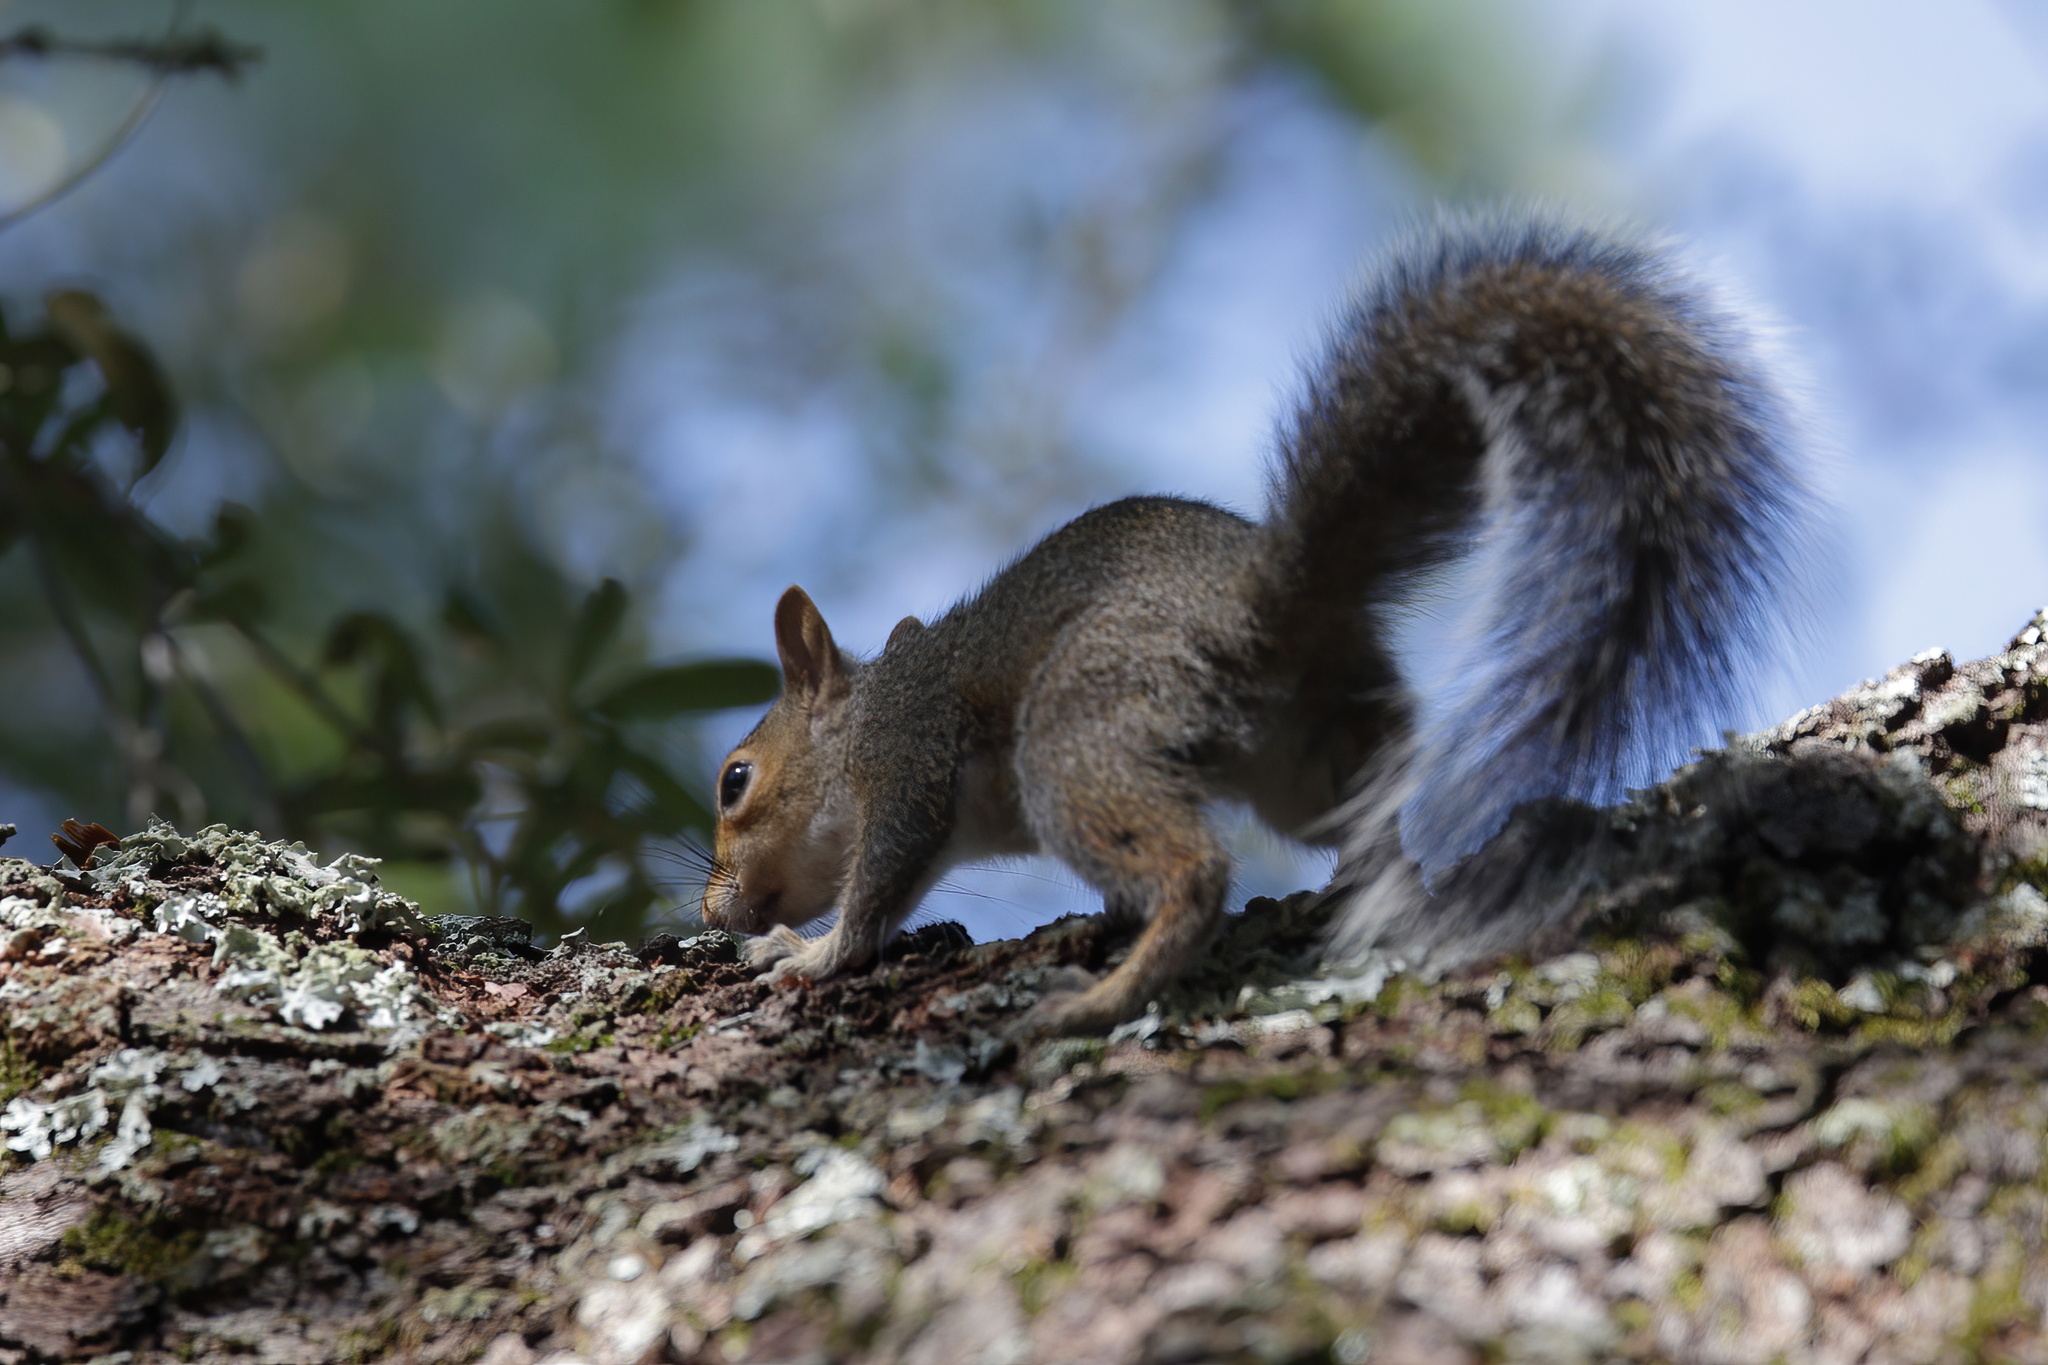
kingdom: Animalia
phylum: Chordata
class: Mammalia
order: Rodentia
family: Sciuridae
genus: Sciurus
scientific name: Sciurus carolinensis
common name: Eastern gray squirrel
